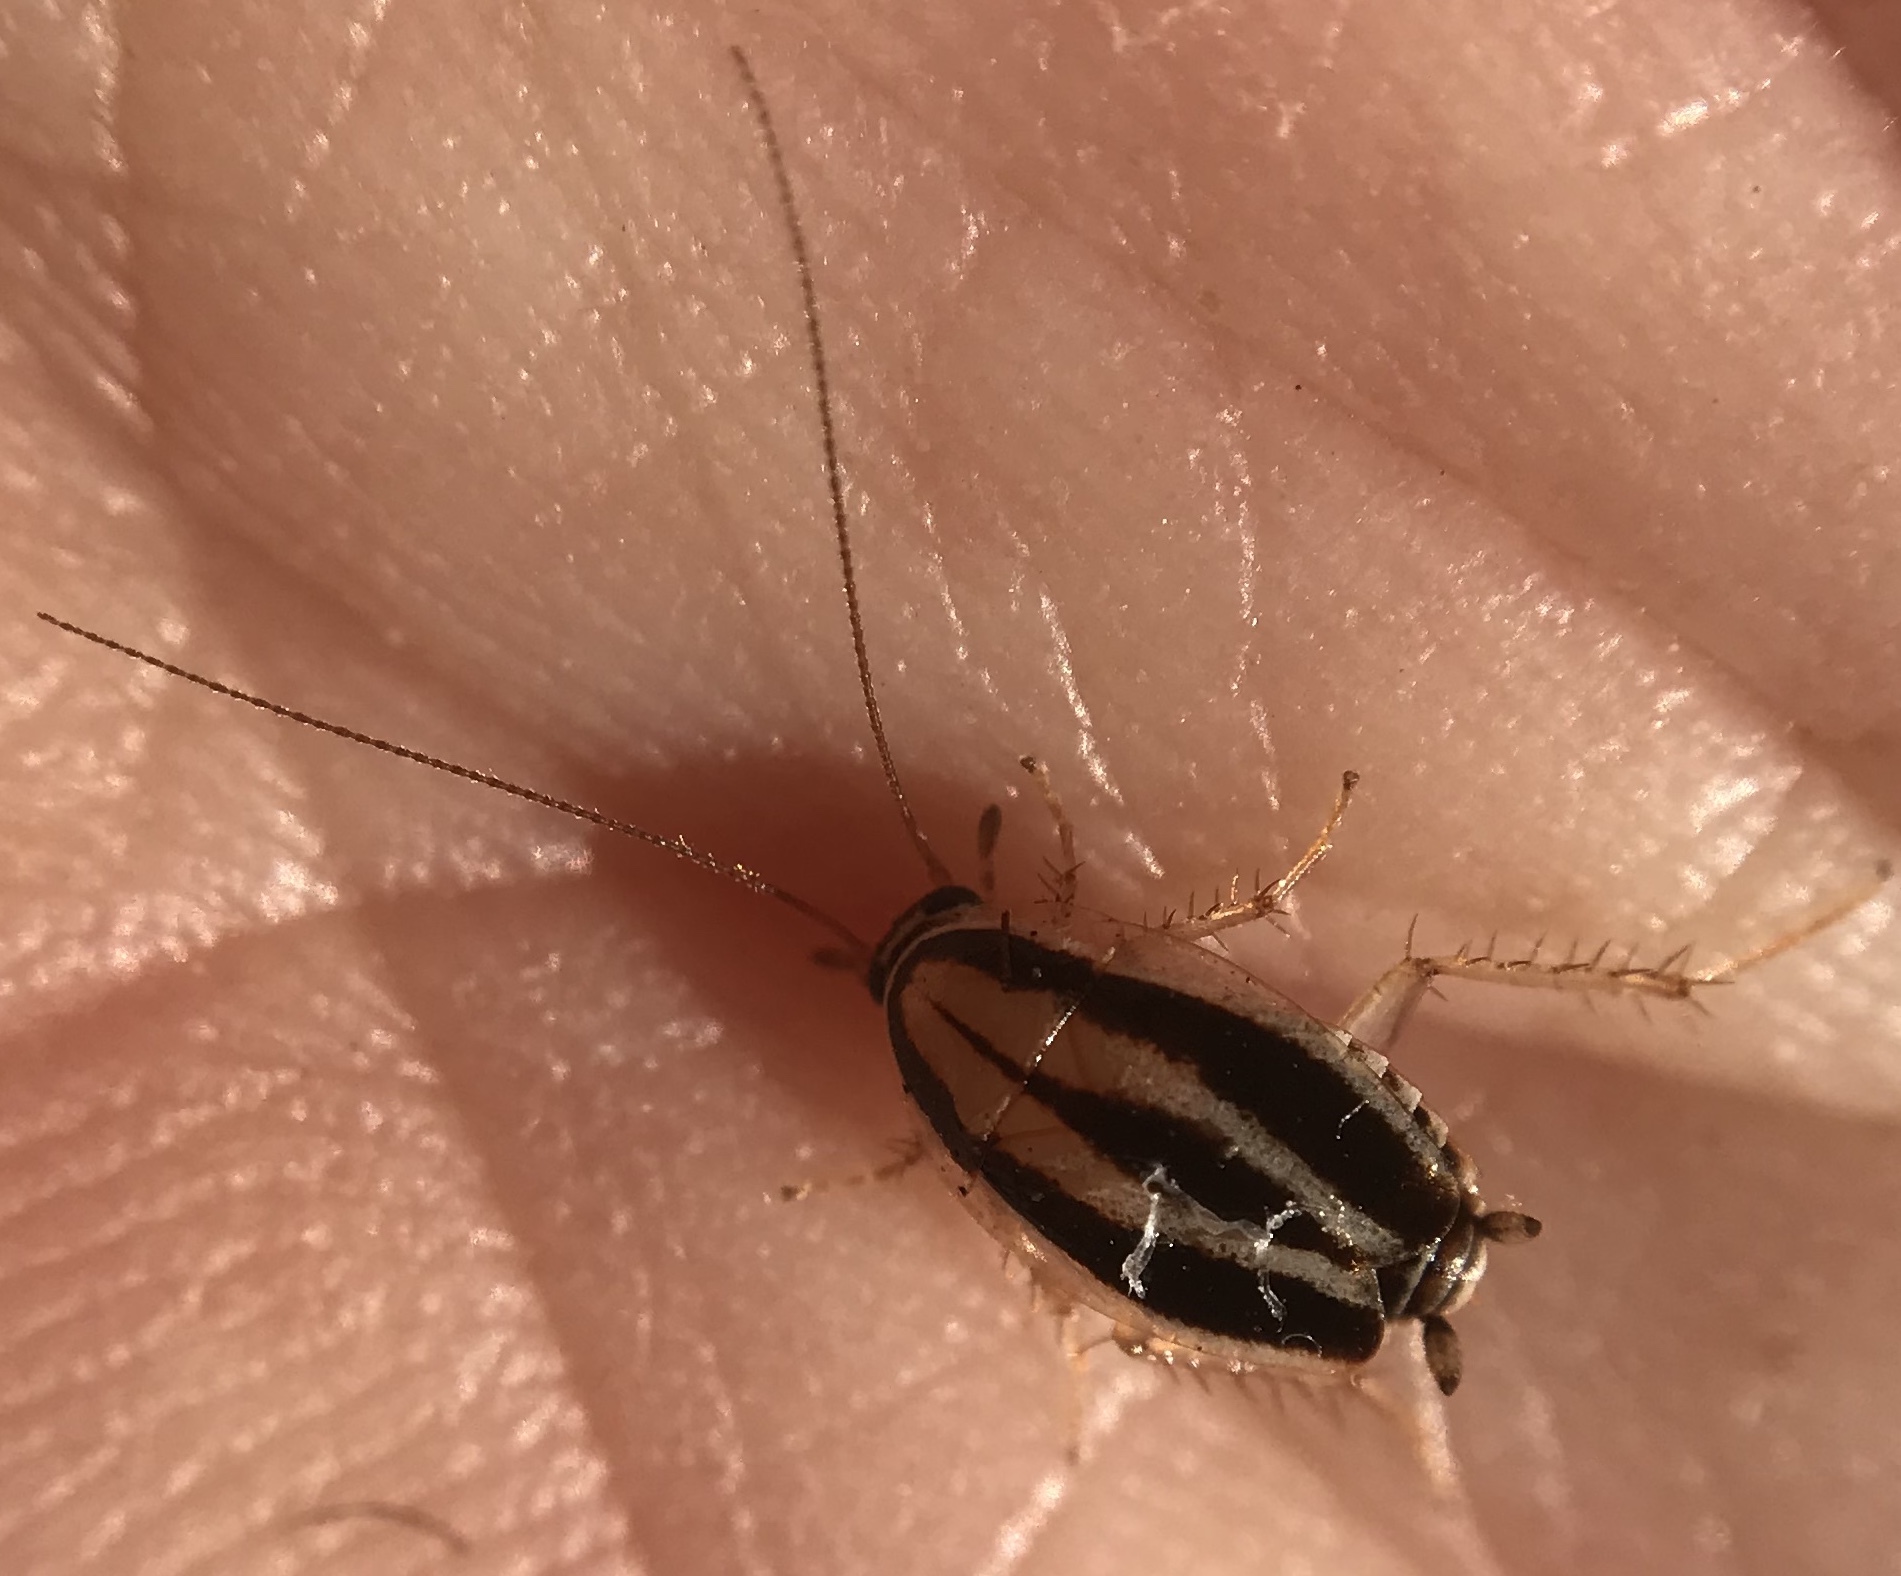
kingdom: Animalia
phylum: Arthropoda
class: Insecta
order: Blattodea
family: Ectobiidae
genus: Luridiblatta
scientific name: Luridiblatta trivittata
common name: Three-lined cockroach
